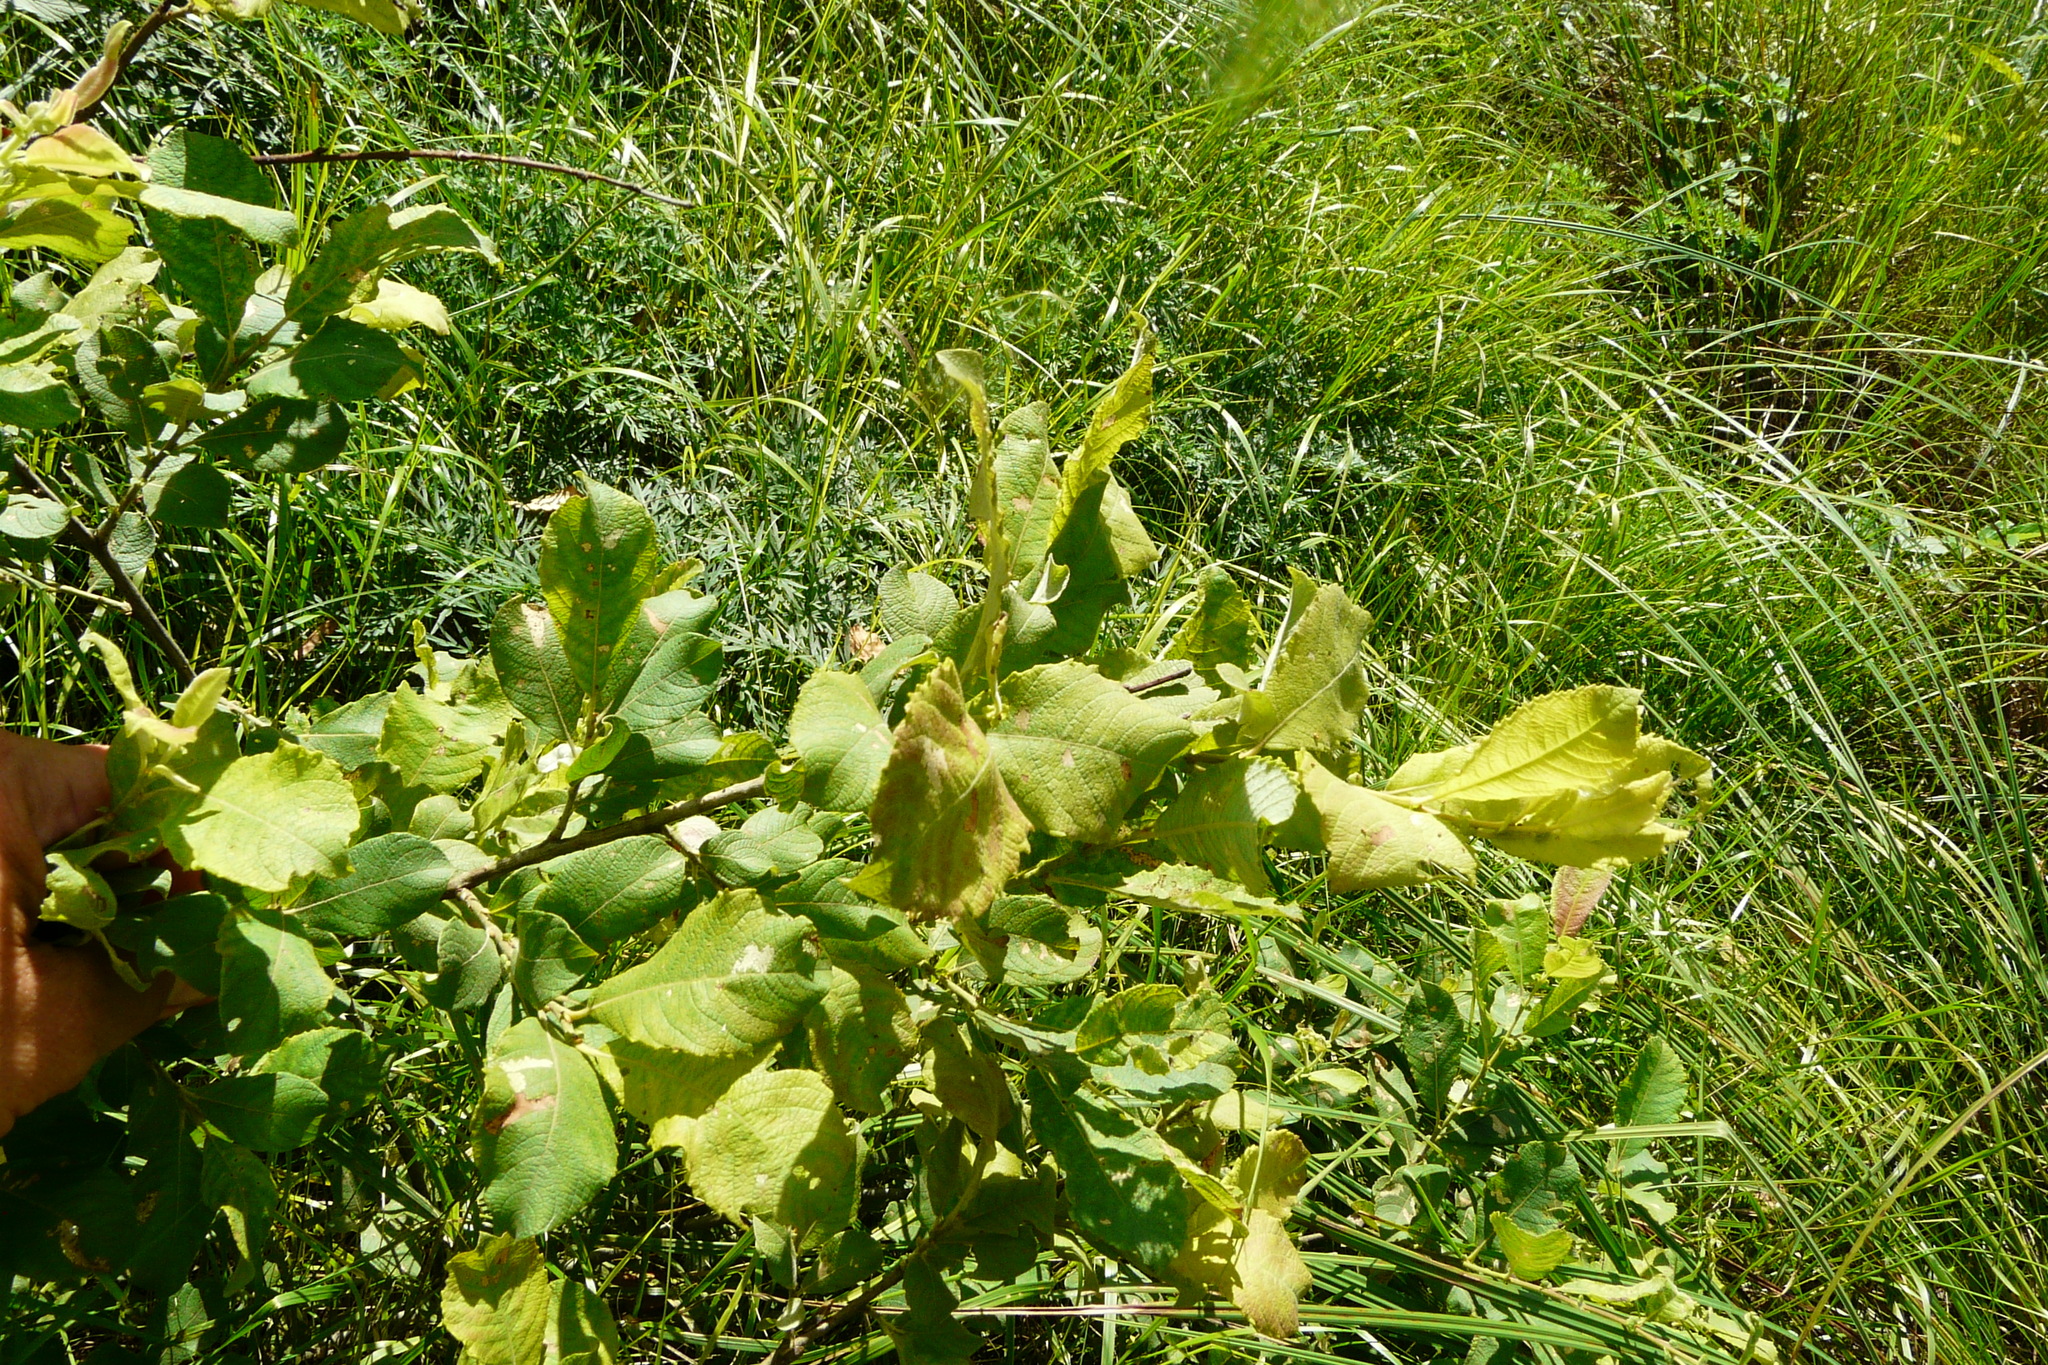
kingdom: Plantae
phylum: Tracheophyta
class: Magnoliopsida
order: Malpighiales
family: Salicaceae
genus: Salix
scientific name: Salix aurita
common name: Eared willow
